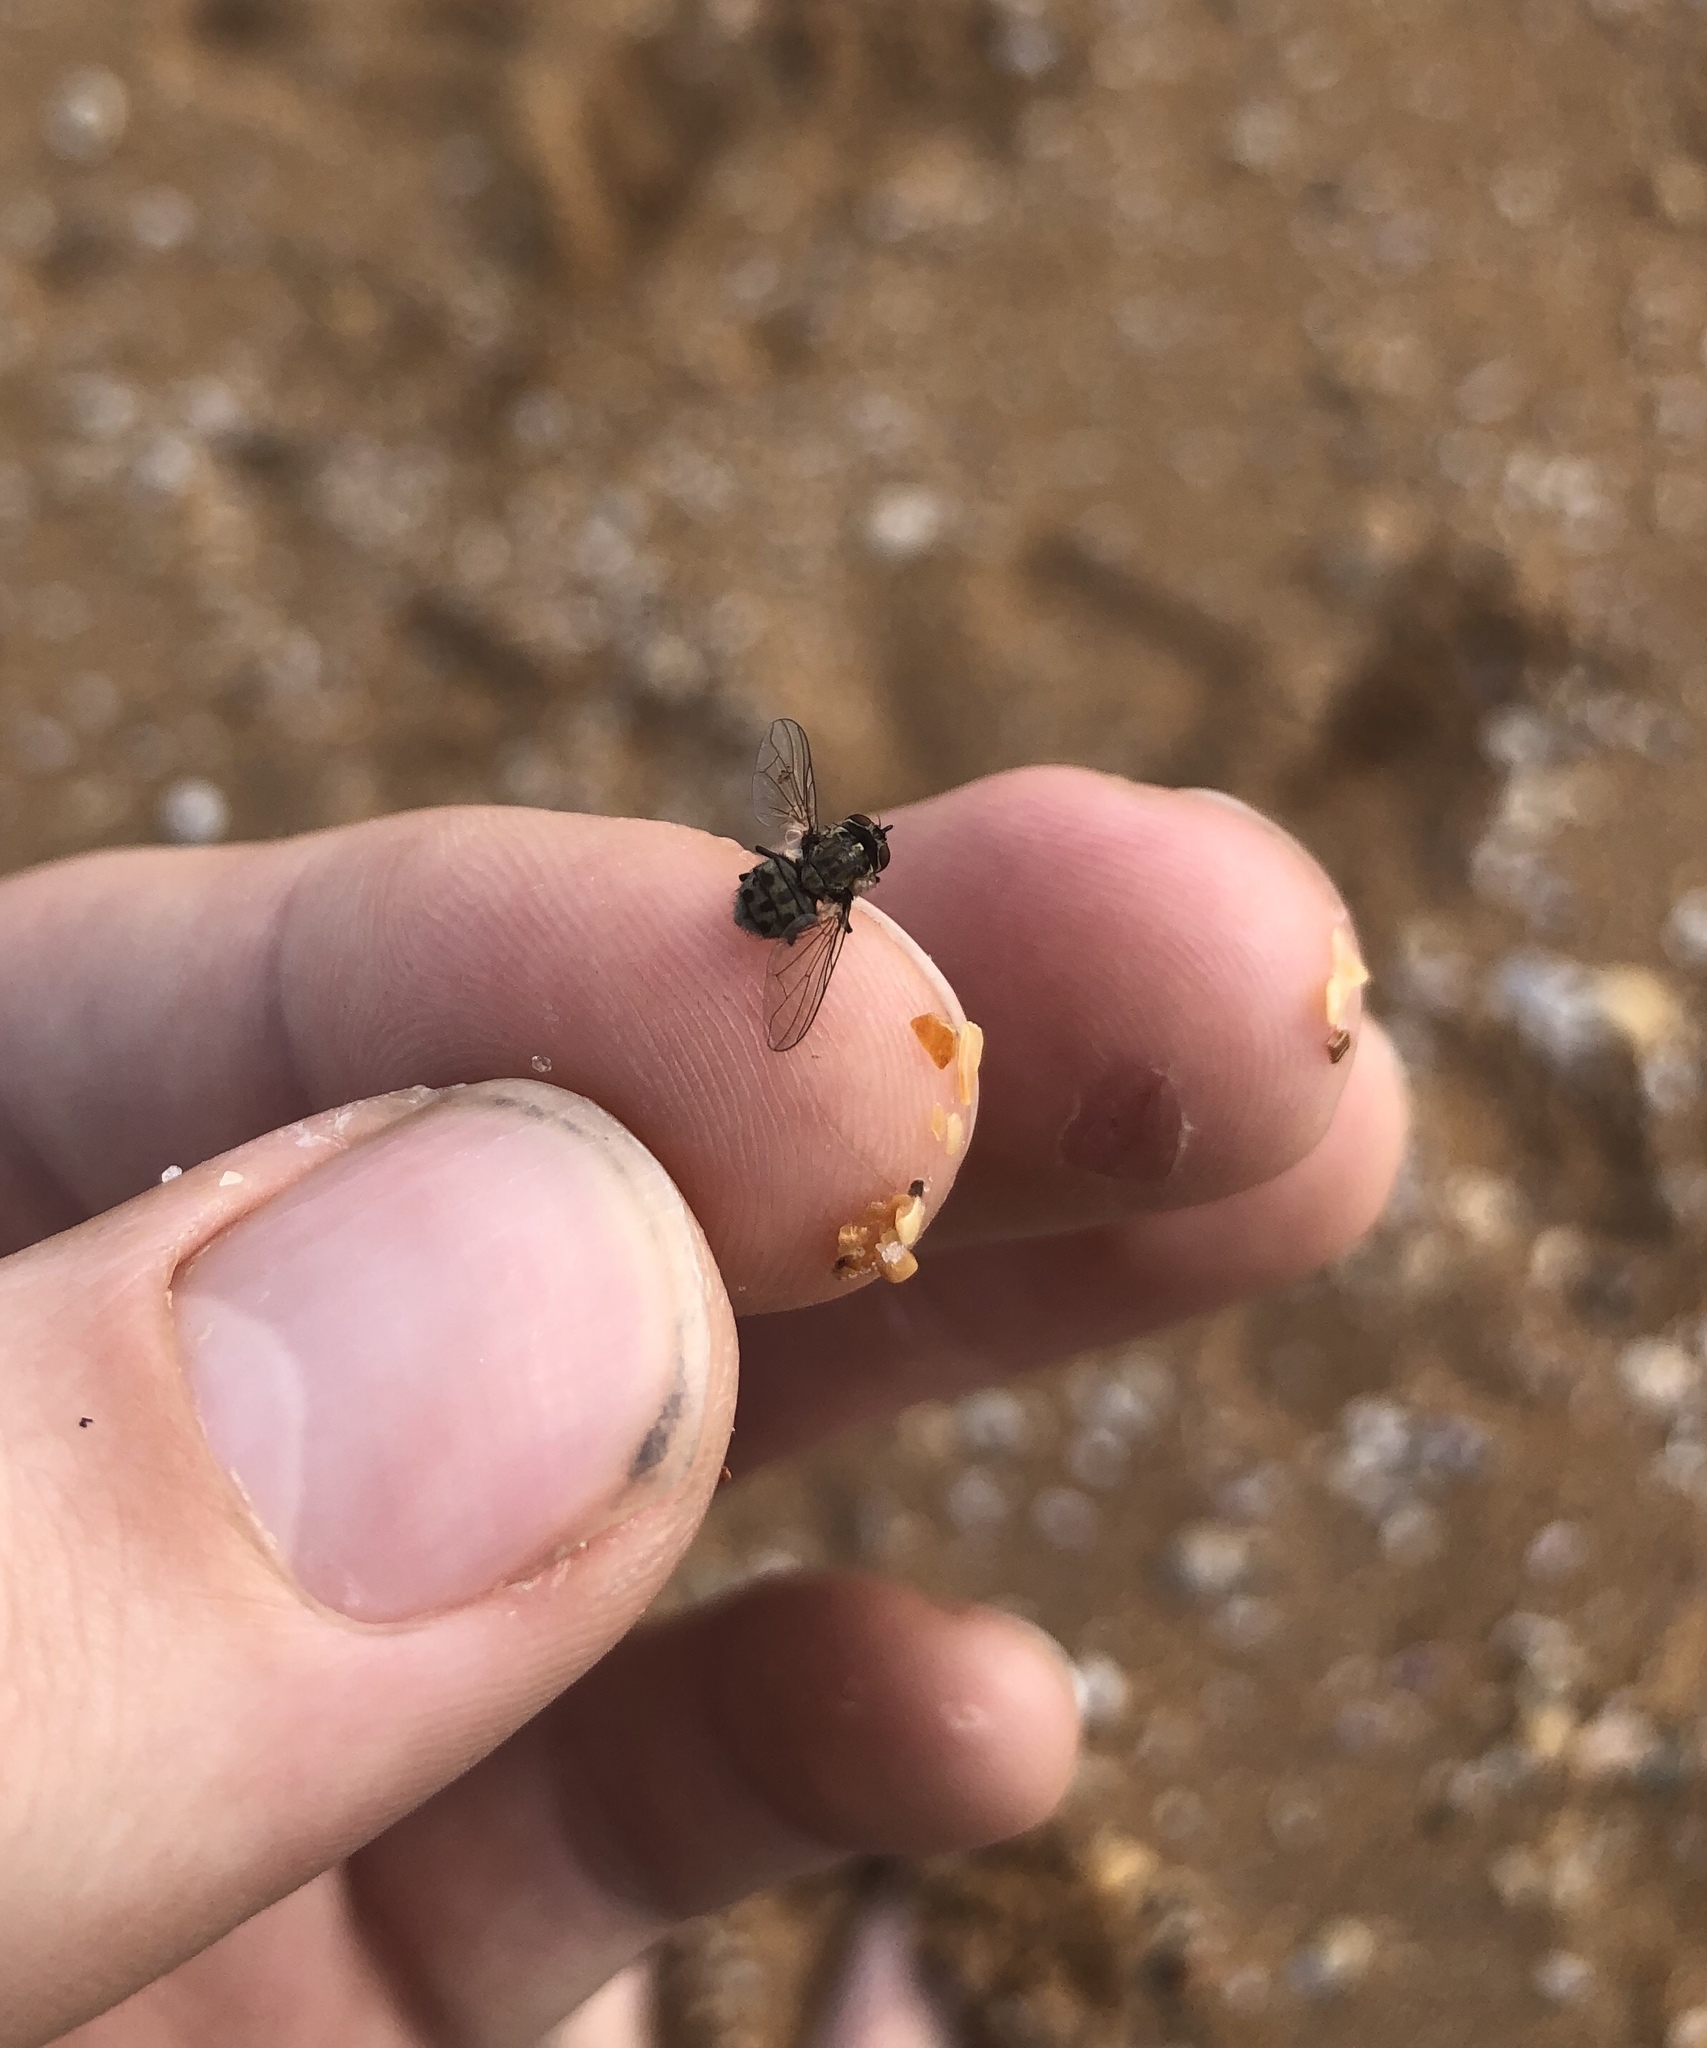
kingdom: Animalia
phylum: Arthropoda
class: Insecta
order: Diptera
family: Muscidae
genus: Stomoxys
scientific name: Stomoxys calcitrans
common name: Stable fly
